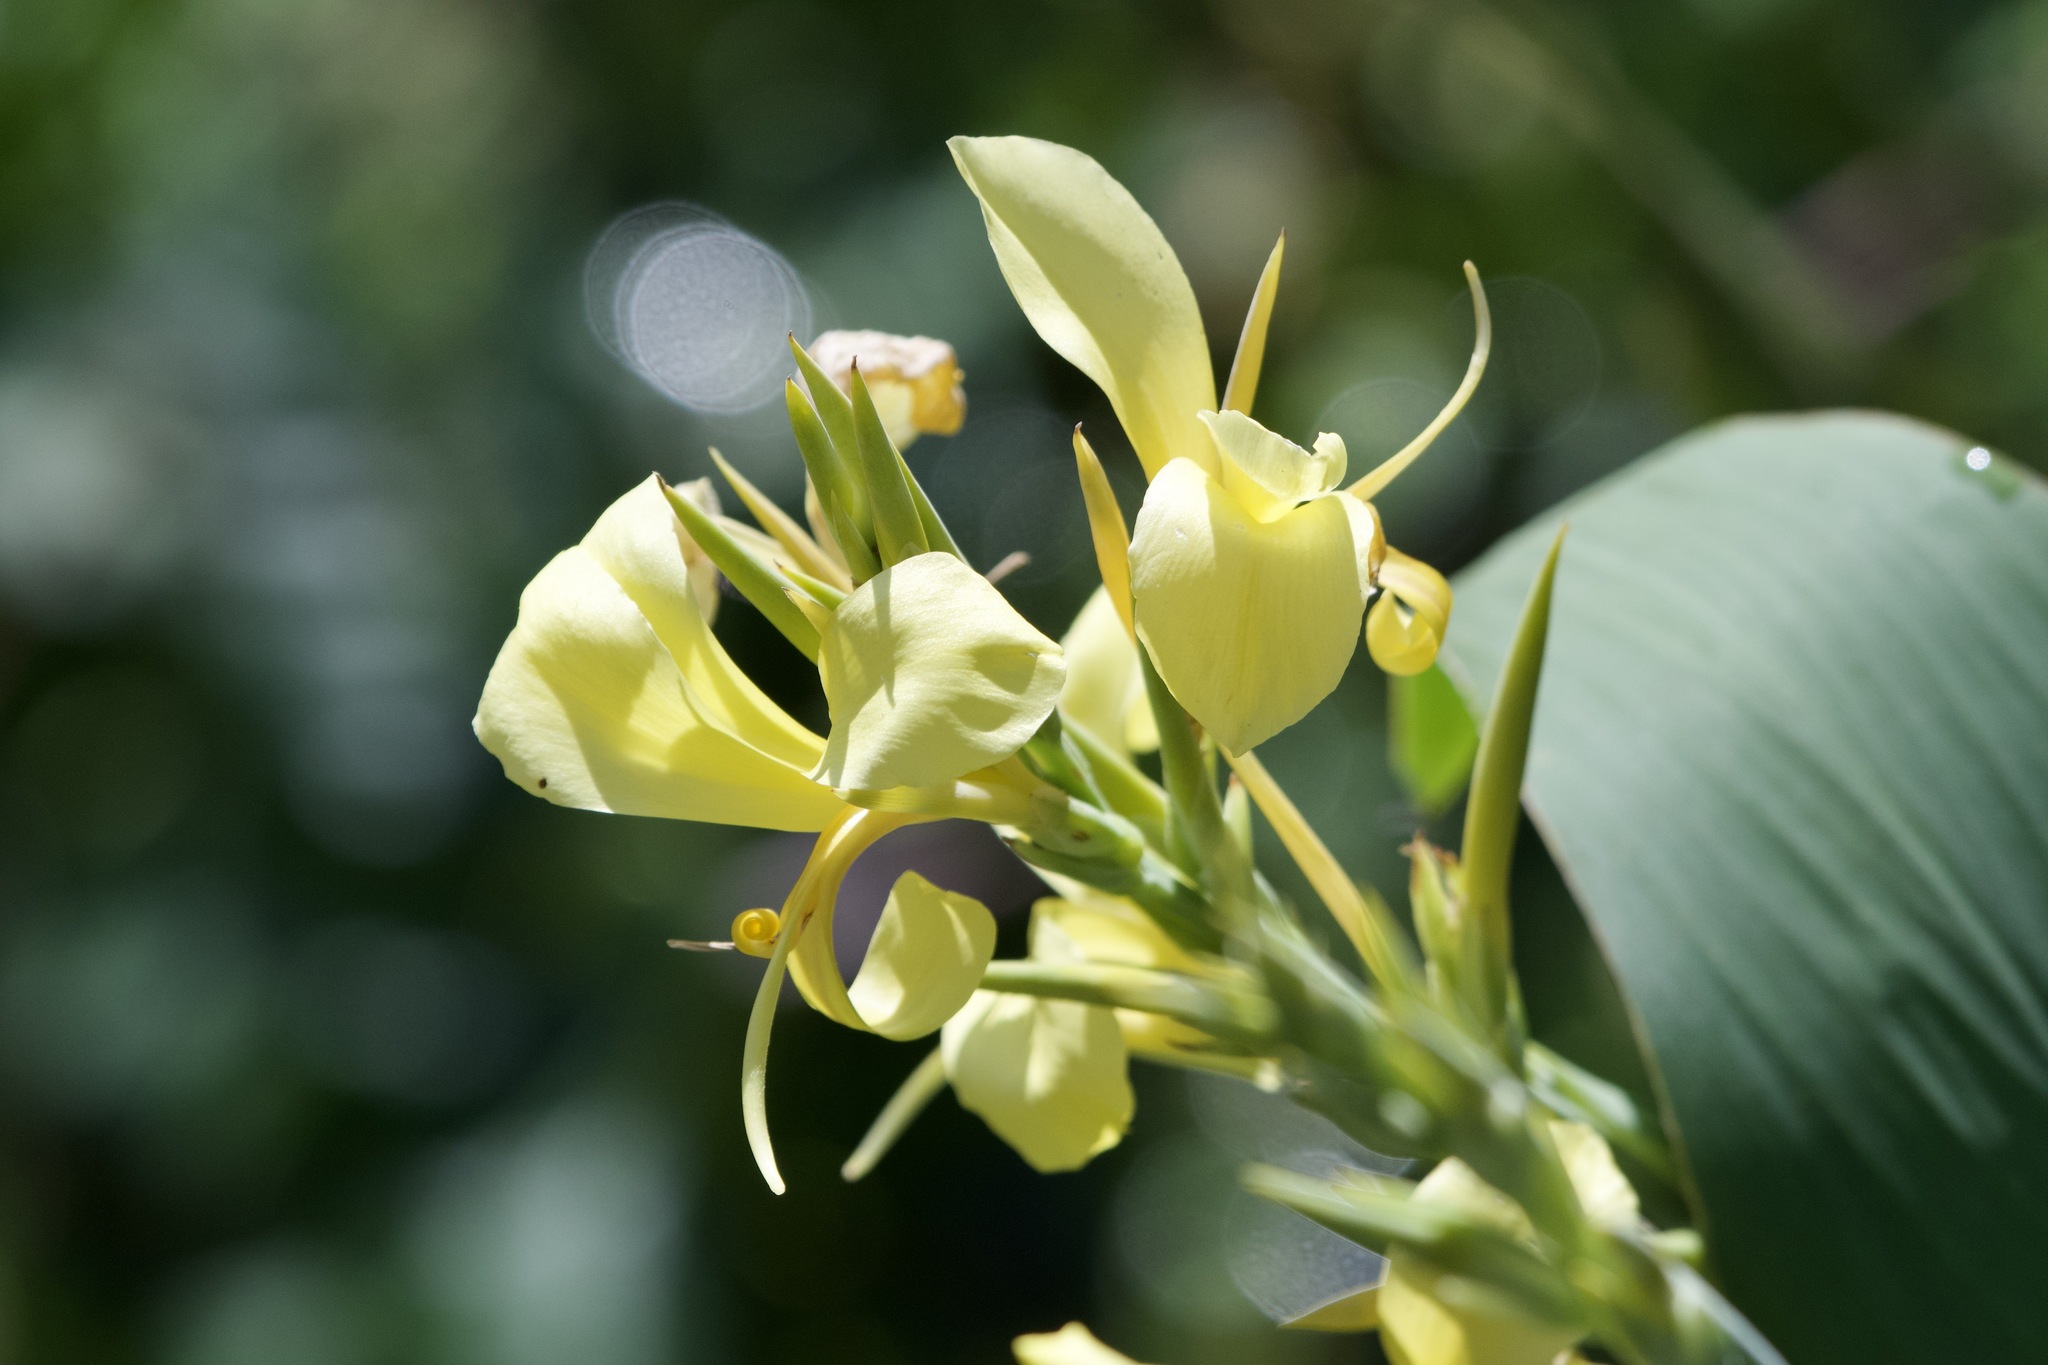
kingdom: Plantae
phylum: Tracheophyta
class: Liliopsida
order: Zingiberales
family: Cannaceae
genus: Canna
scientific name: Canna glauca
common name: Louisiana canna
